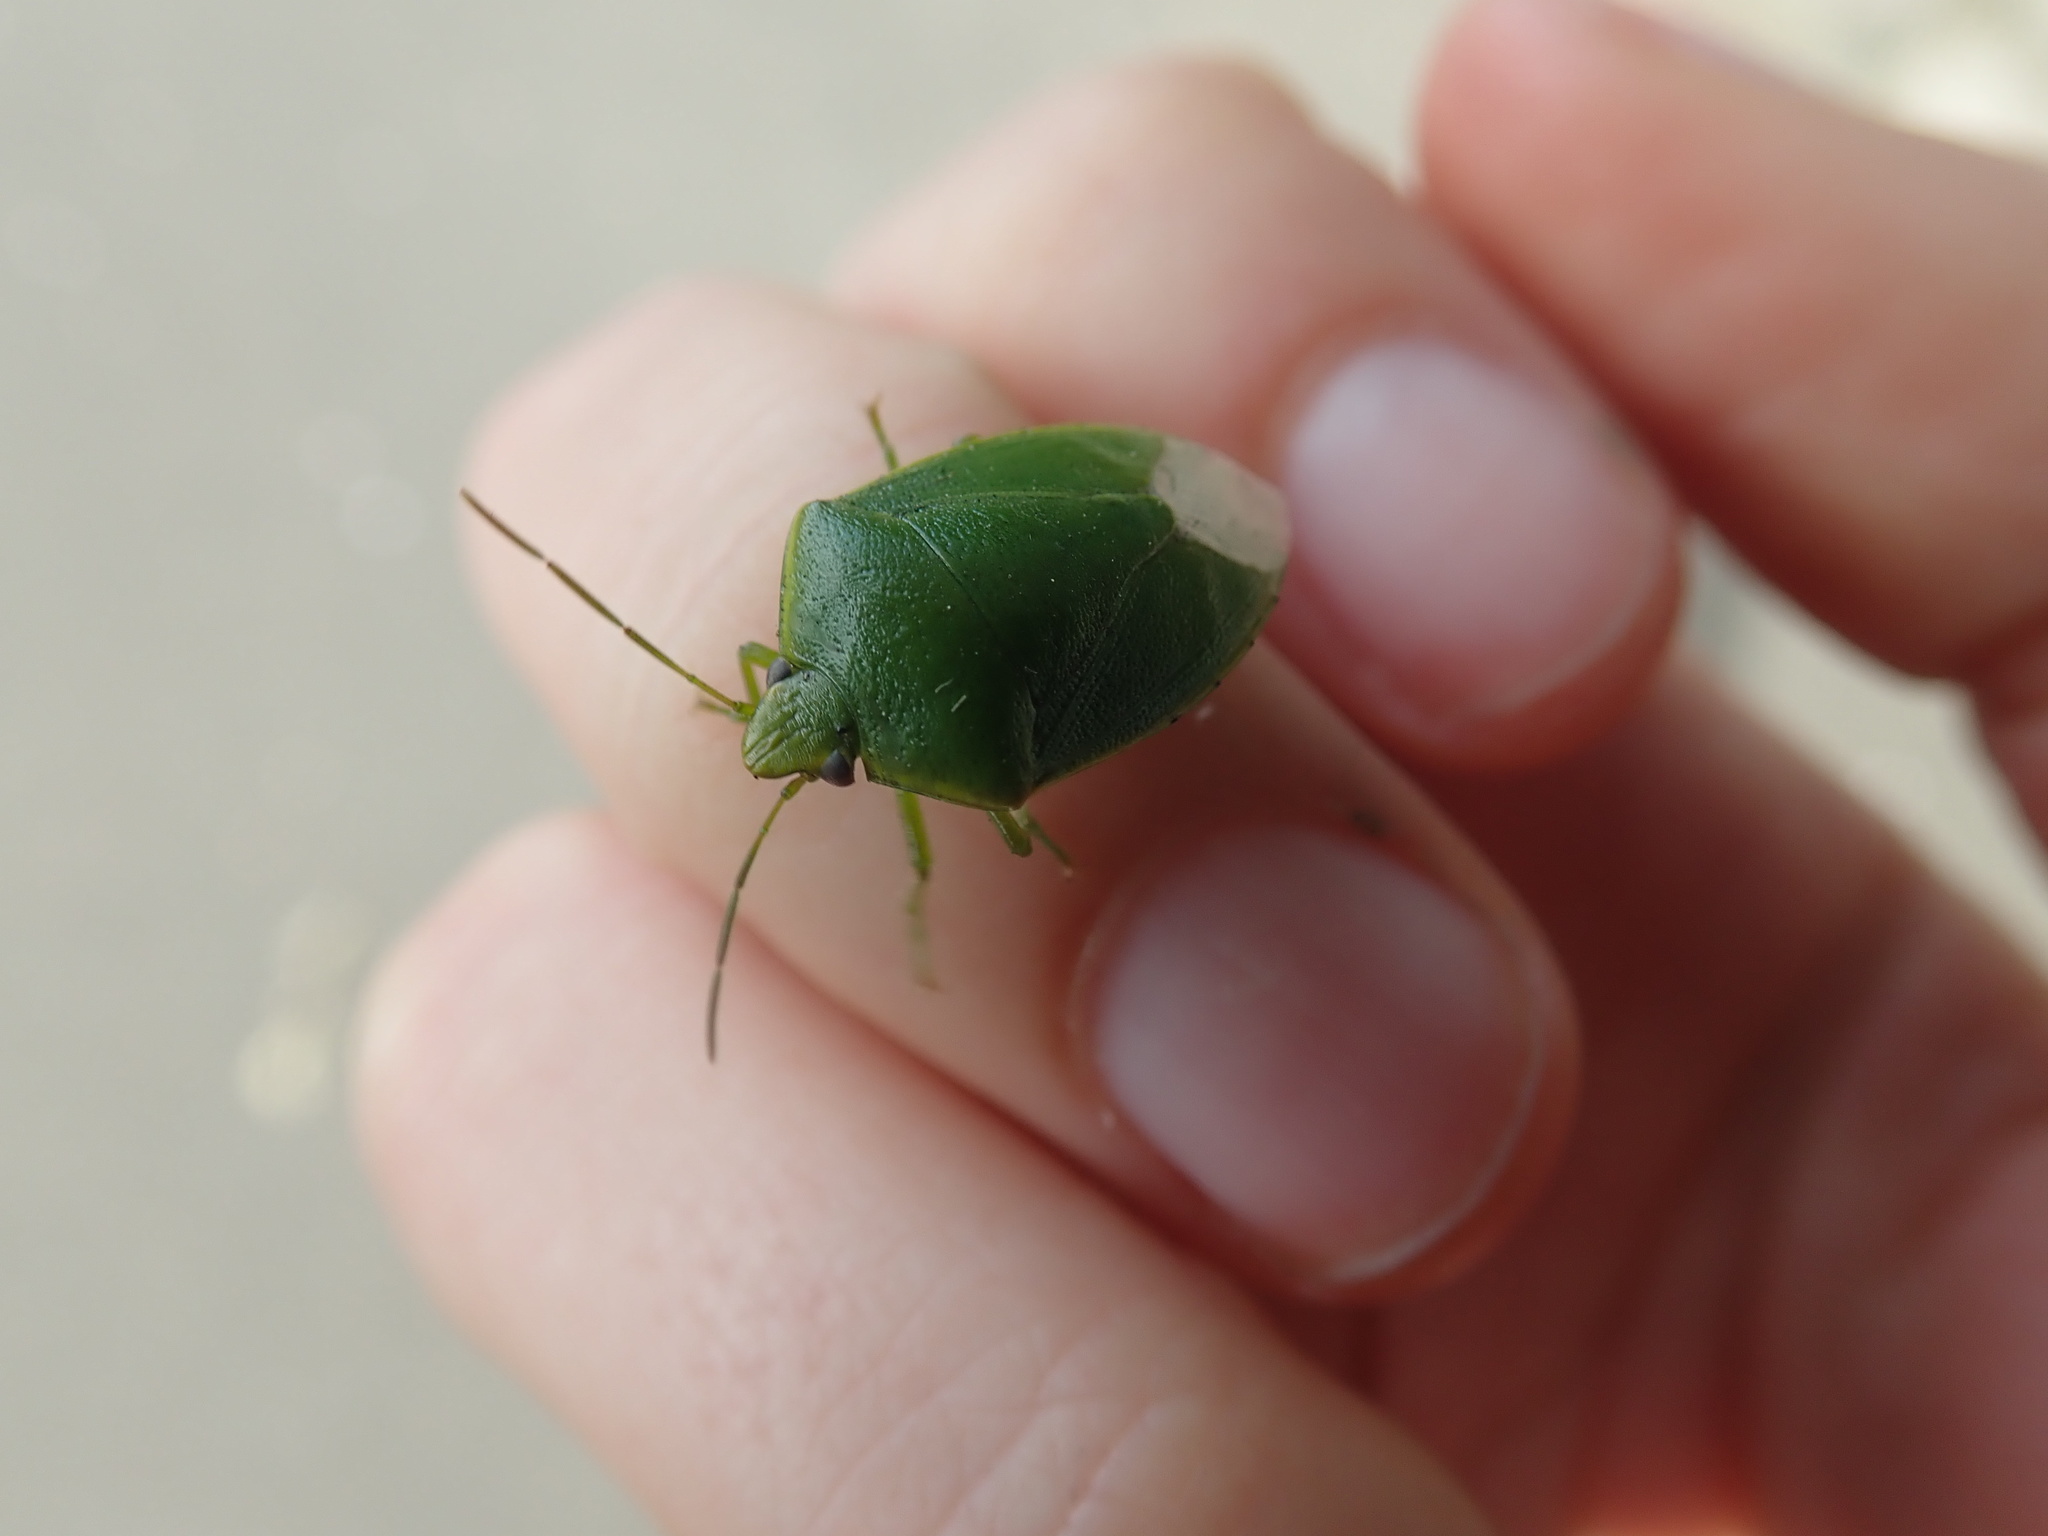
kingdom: Animalia
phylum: Arthropoda
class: Insecta
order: Hemiptera
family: Pentatomidae
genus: Glaucias
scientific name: Glaucias amyota
